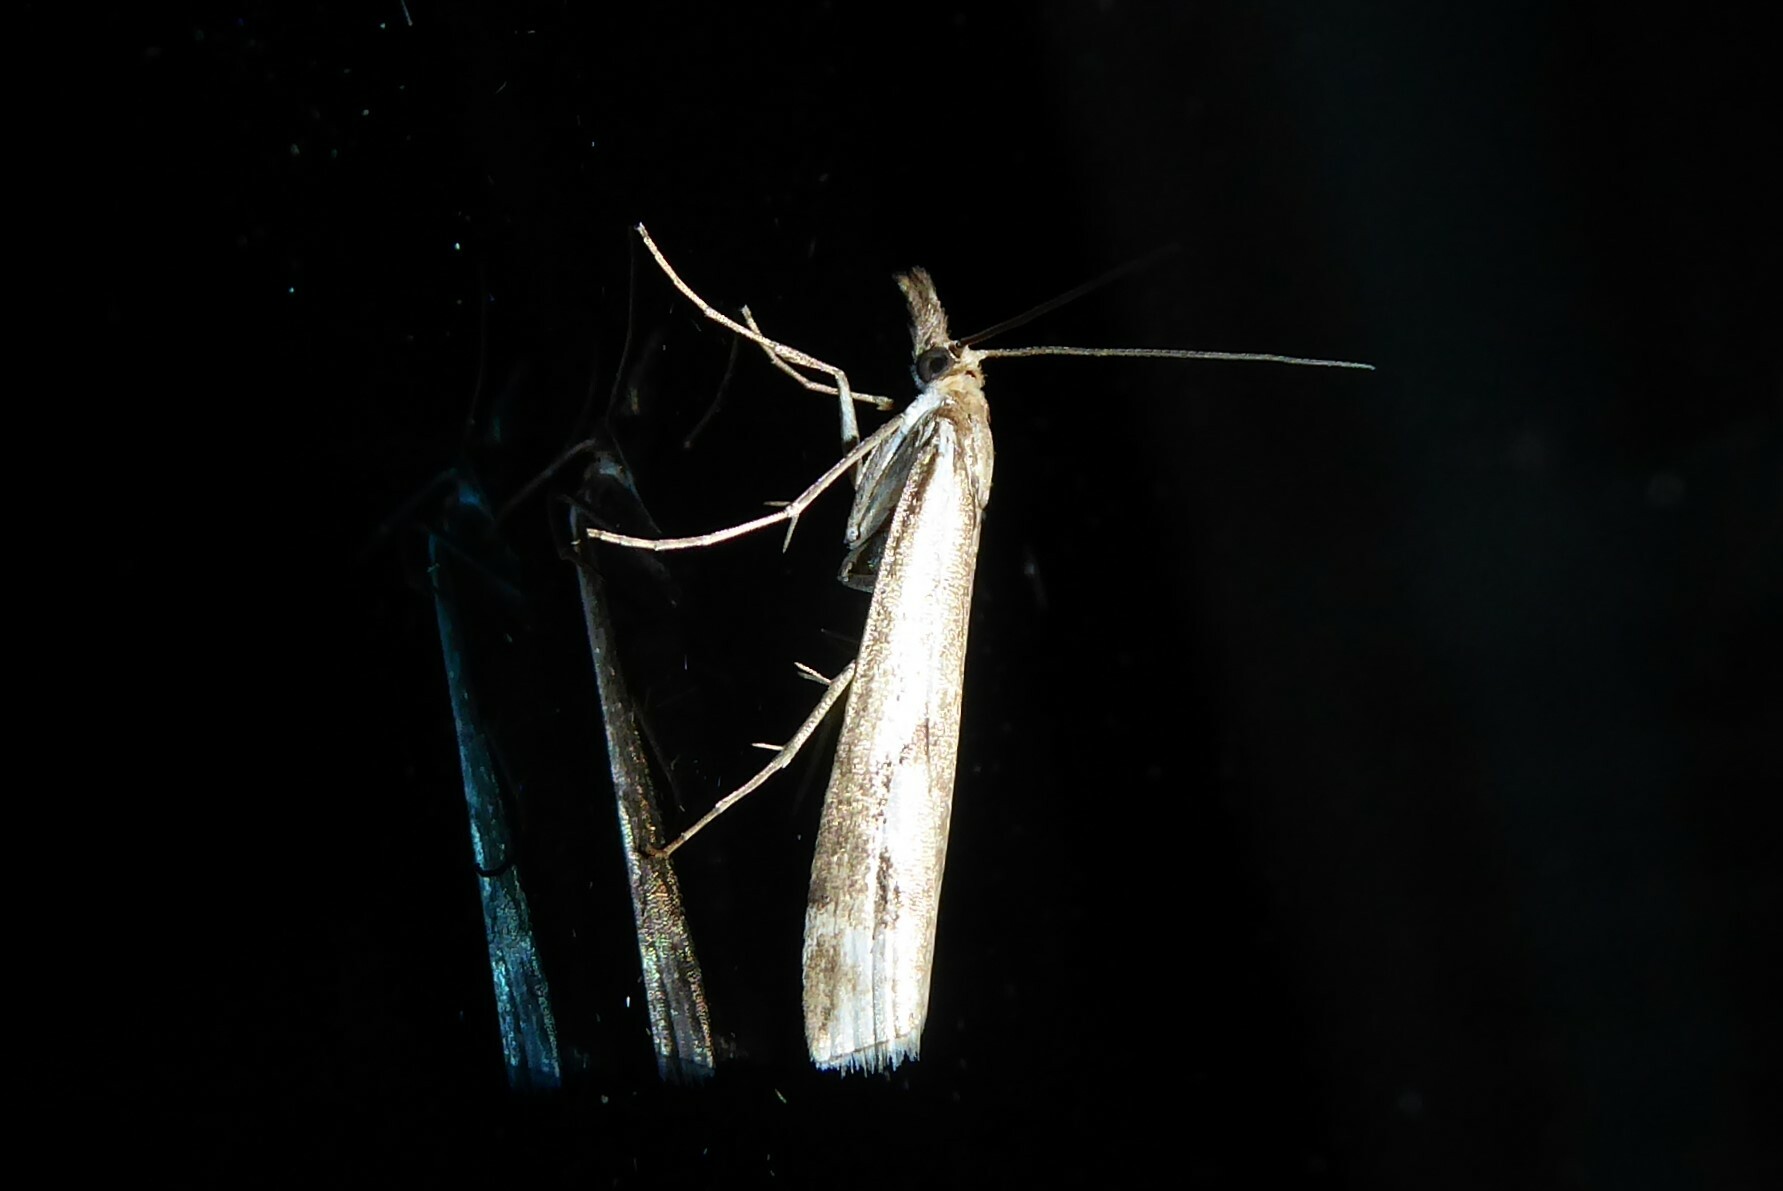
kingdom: Animalia
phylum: Arthropoda
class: Insecta
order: Lepidoptera
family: Crambidae
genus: Orocrambus
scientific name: Orocrambus vulgaris
